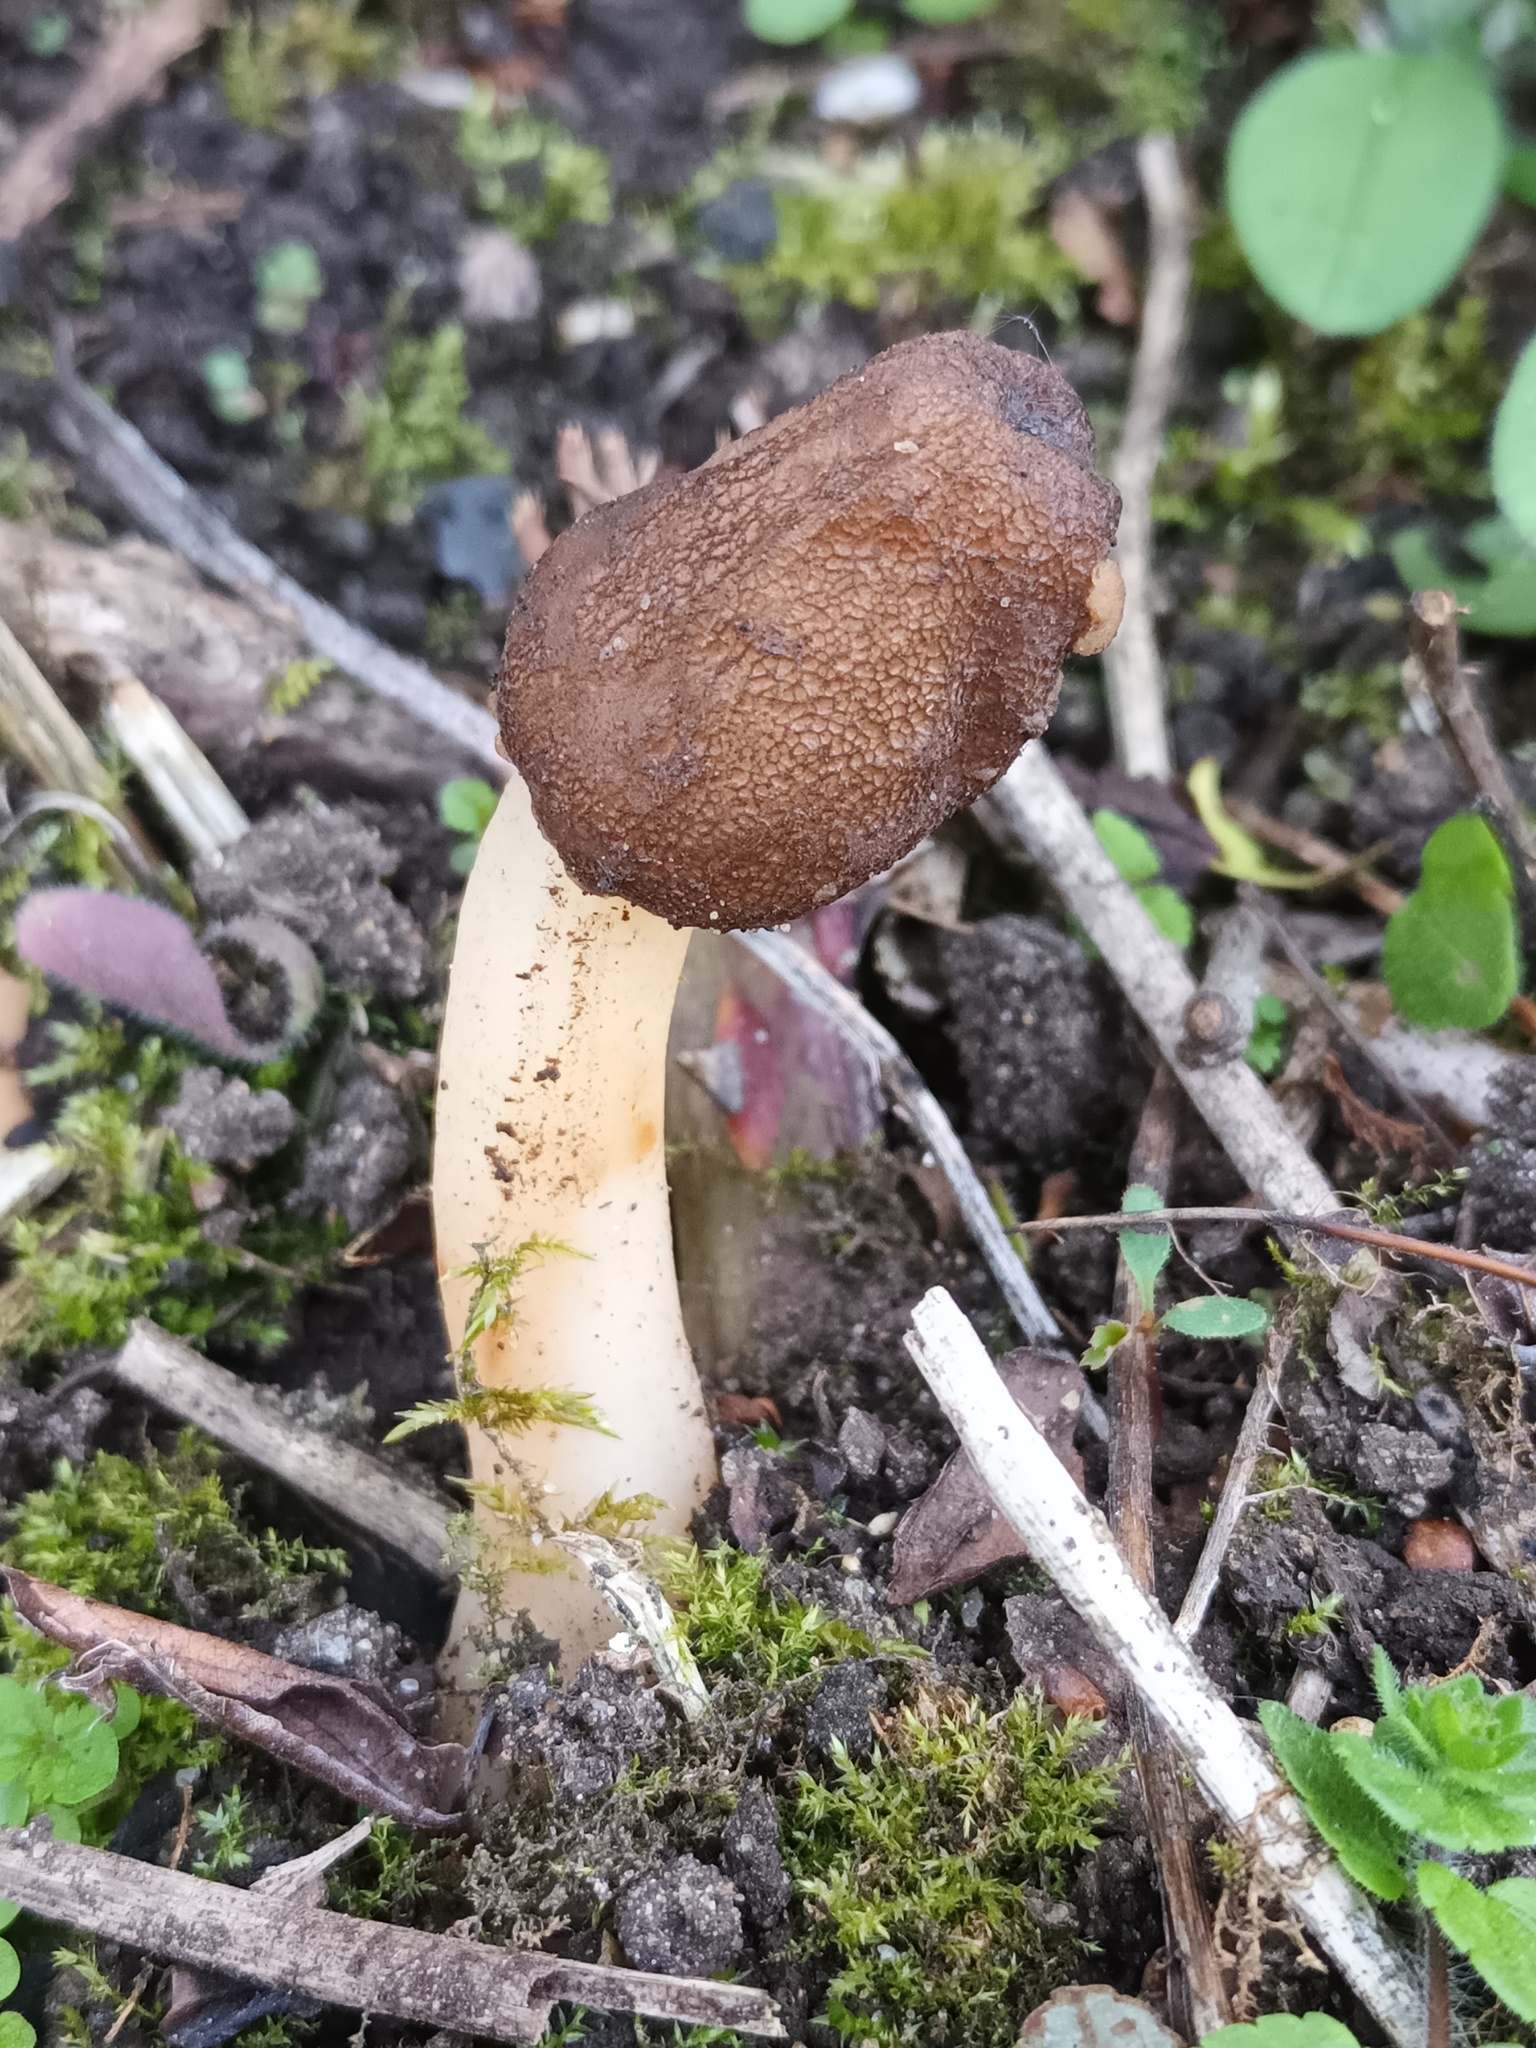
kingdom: Fungi
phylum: Ascomycota
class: Pezizomycetes
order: Pezizales
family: Morchellaceae
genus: Verpa
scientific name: Verpa conica
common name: Thimble morel
